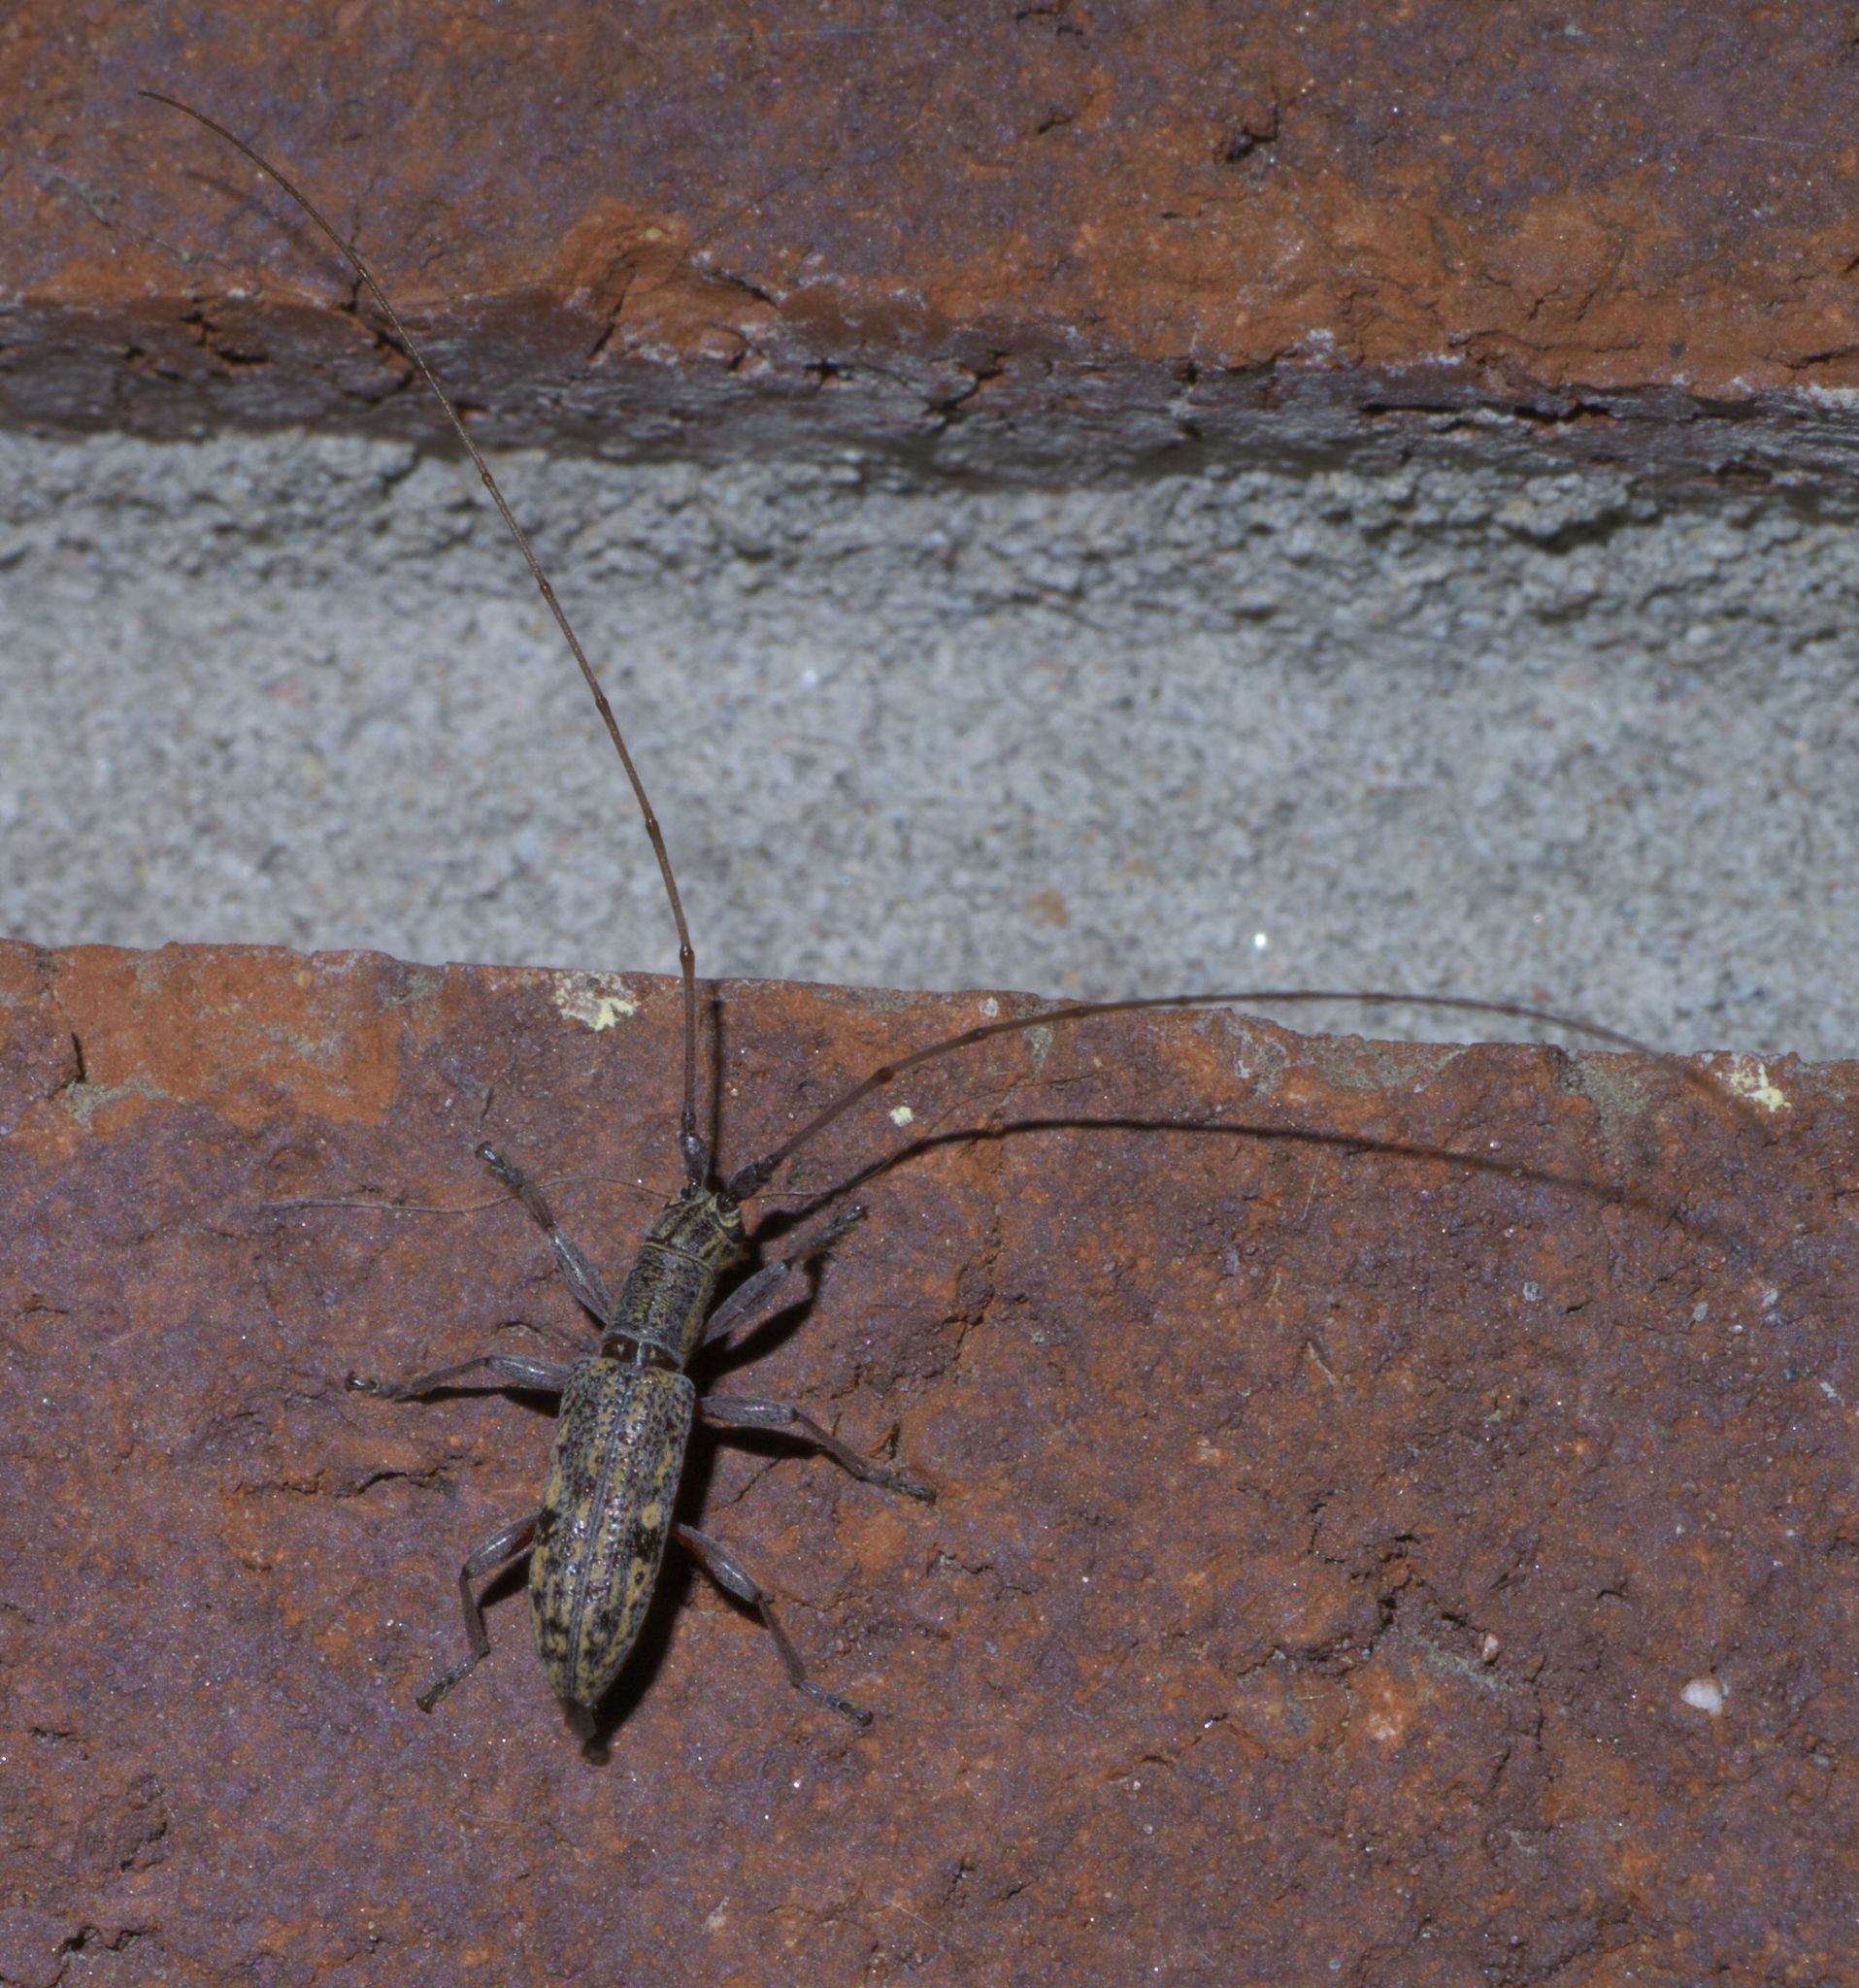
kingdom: Animalia
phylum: Arthropoda
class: Insecta
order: Coleoptera
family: Cerambycidae
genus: Dorcaschema
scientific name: Dorcaschema alternatum
